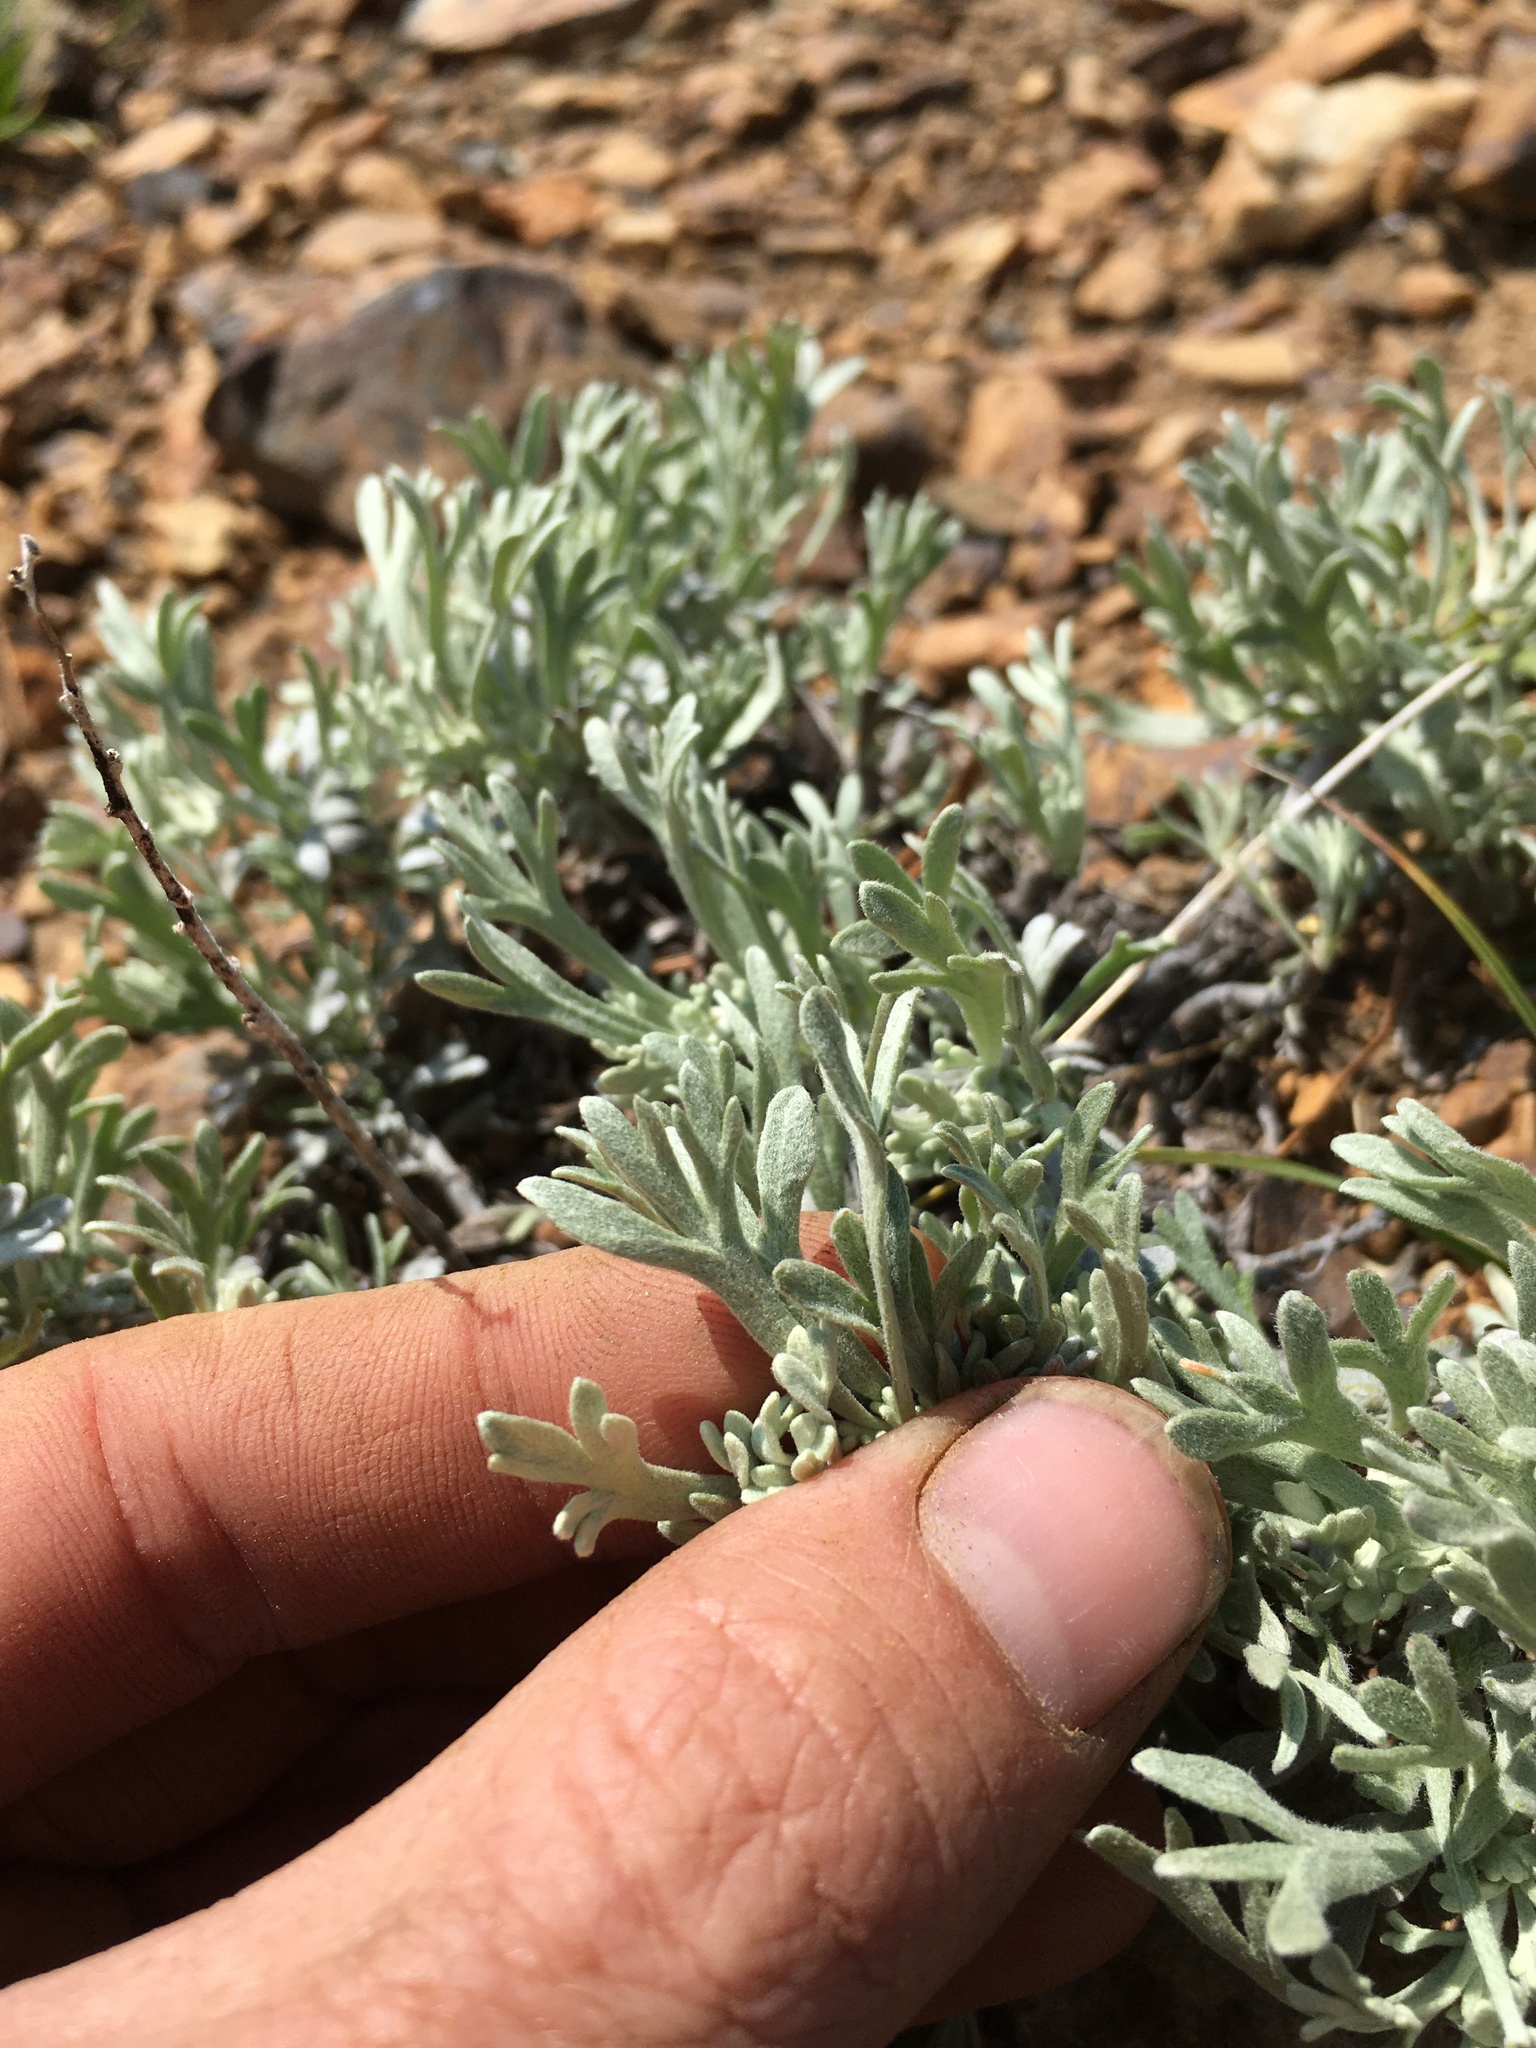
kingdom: Plantae
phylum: Tracheophyta
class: Magnoliopsida
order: Asterales
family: Asteraceae
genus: Artemisia
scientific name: Artemisia rothrockii
